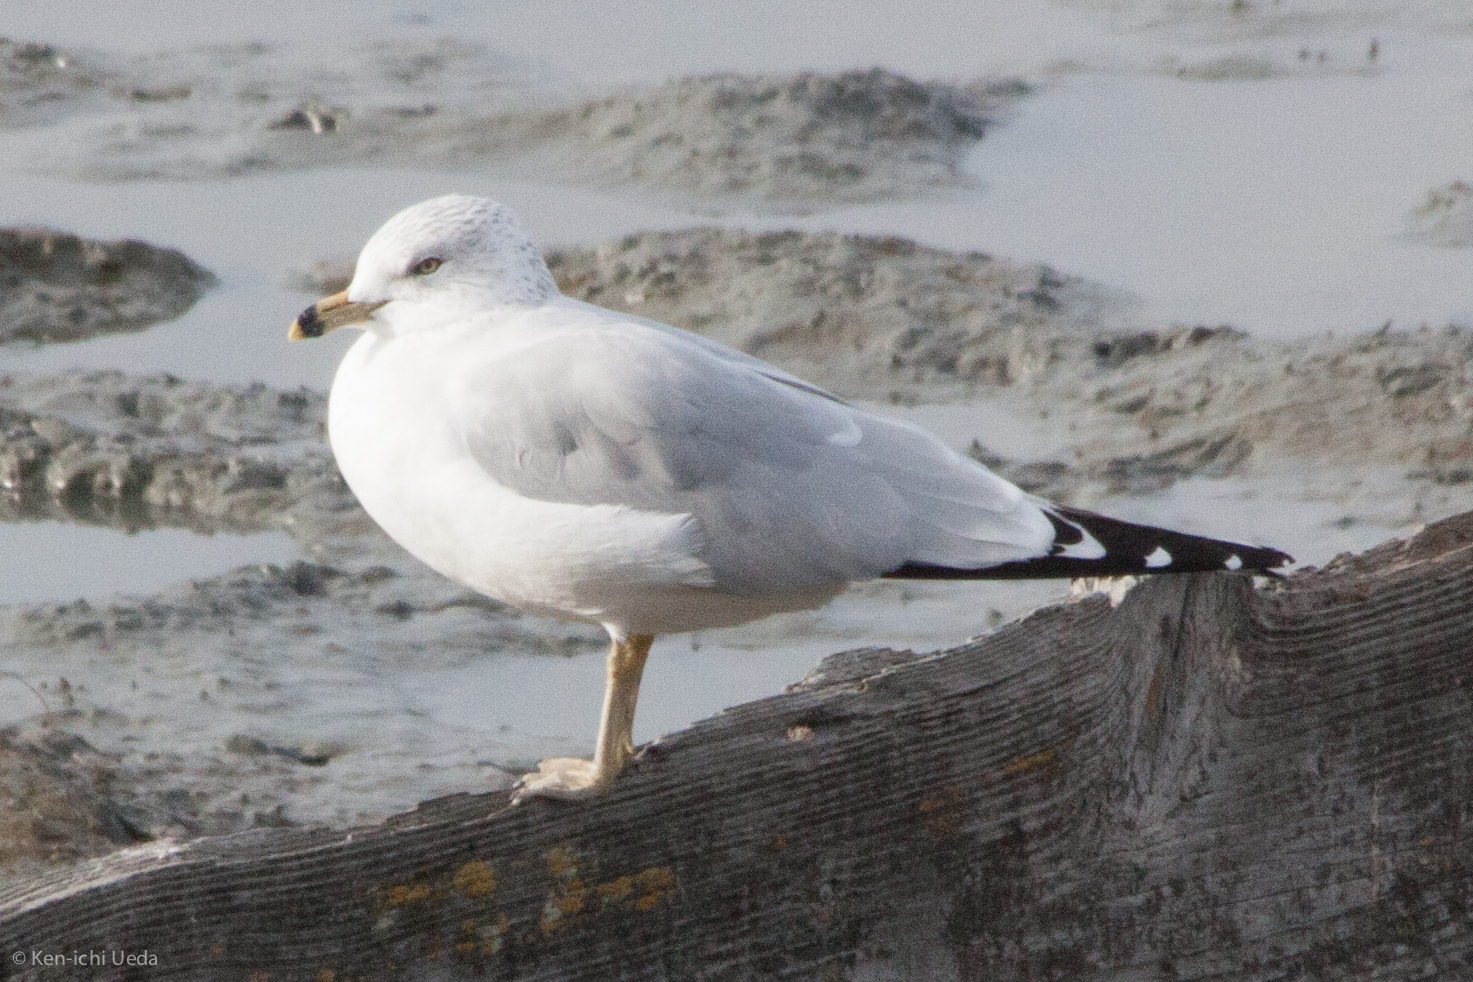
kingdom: Animalia
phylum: Chordata
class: Aves
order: Charadriiformes
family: Laridae
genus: Larus
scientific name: Larus delawarensis
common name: Ring-billed gull
